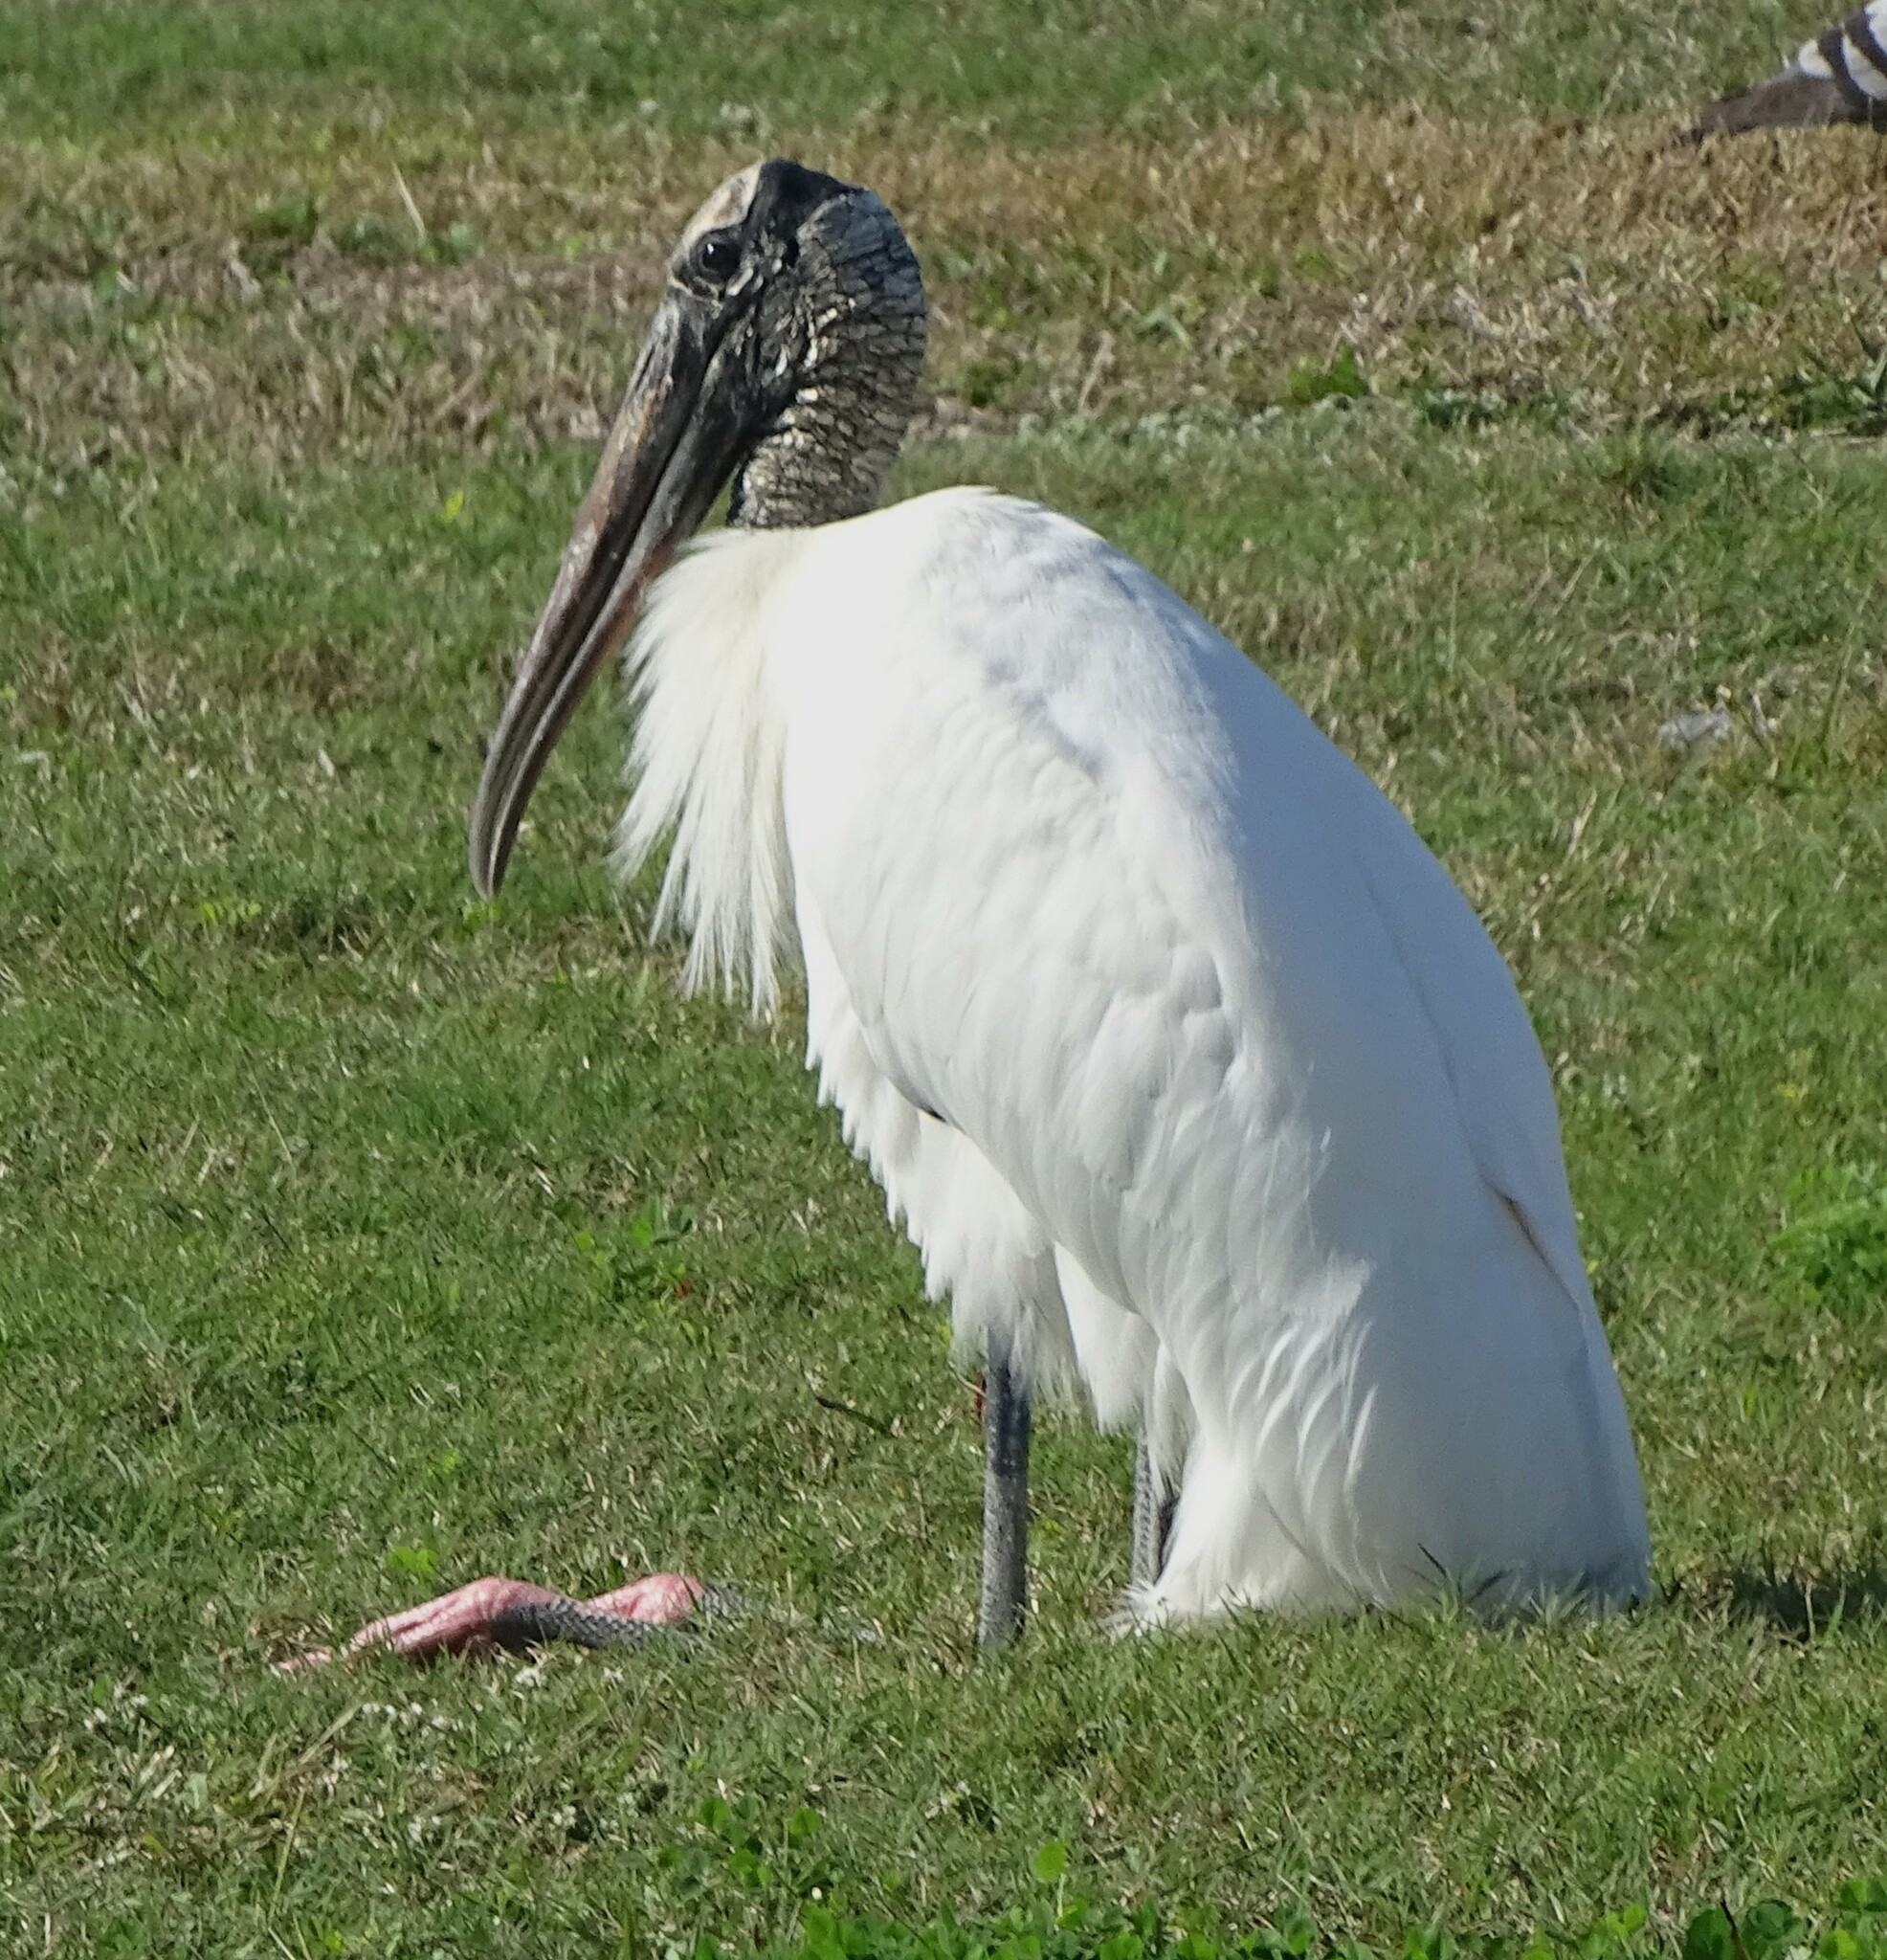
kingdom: Animalia
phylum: Chordata
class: Aves
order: Ciconiiformes
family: Ciconiidae
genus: Mycteria
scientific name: Mycteria americana
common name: Wood stork
